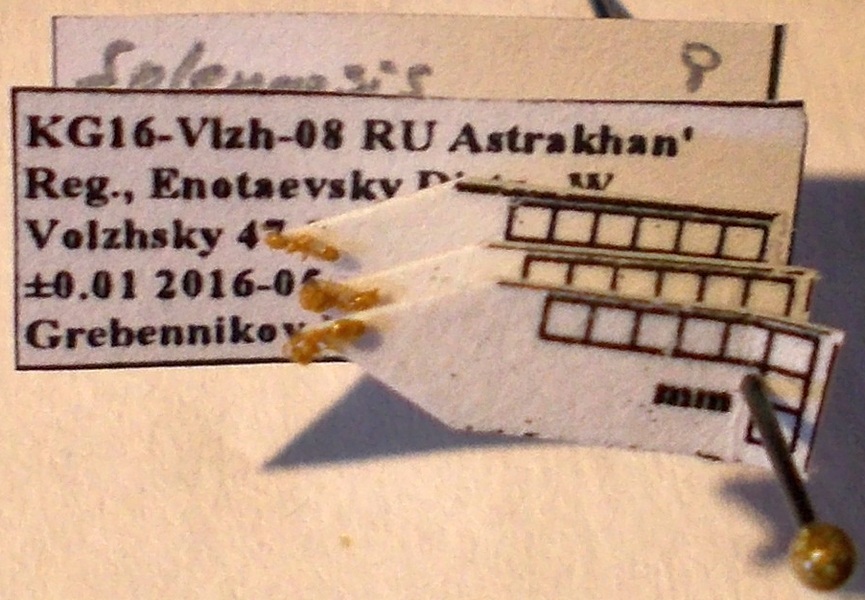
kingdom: Animalia
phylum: Arthropoda
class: Insecta
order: Hymenoptera
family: Formicidae
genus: Solenopsis
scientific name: Solenopsis fugax
